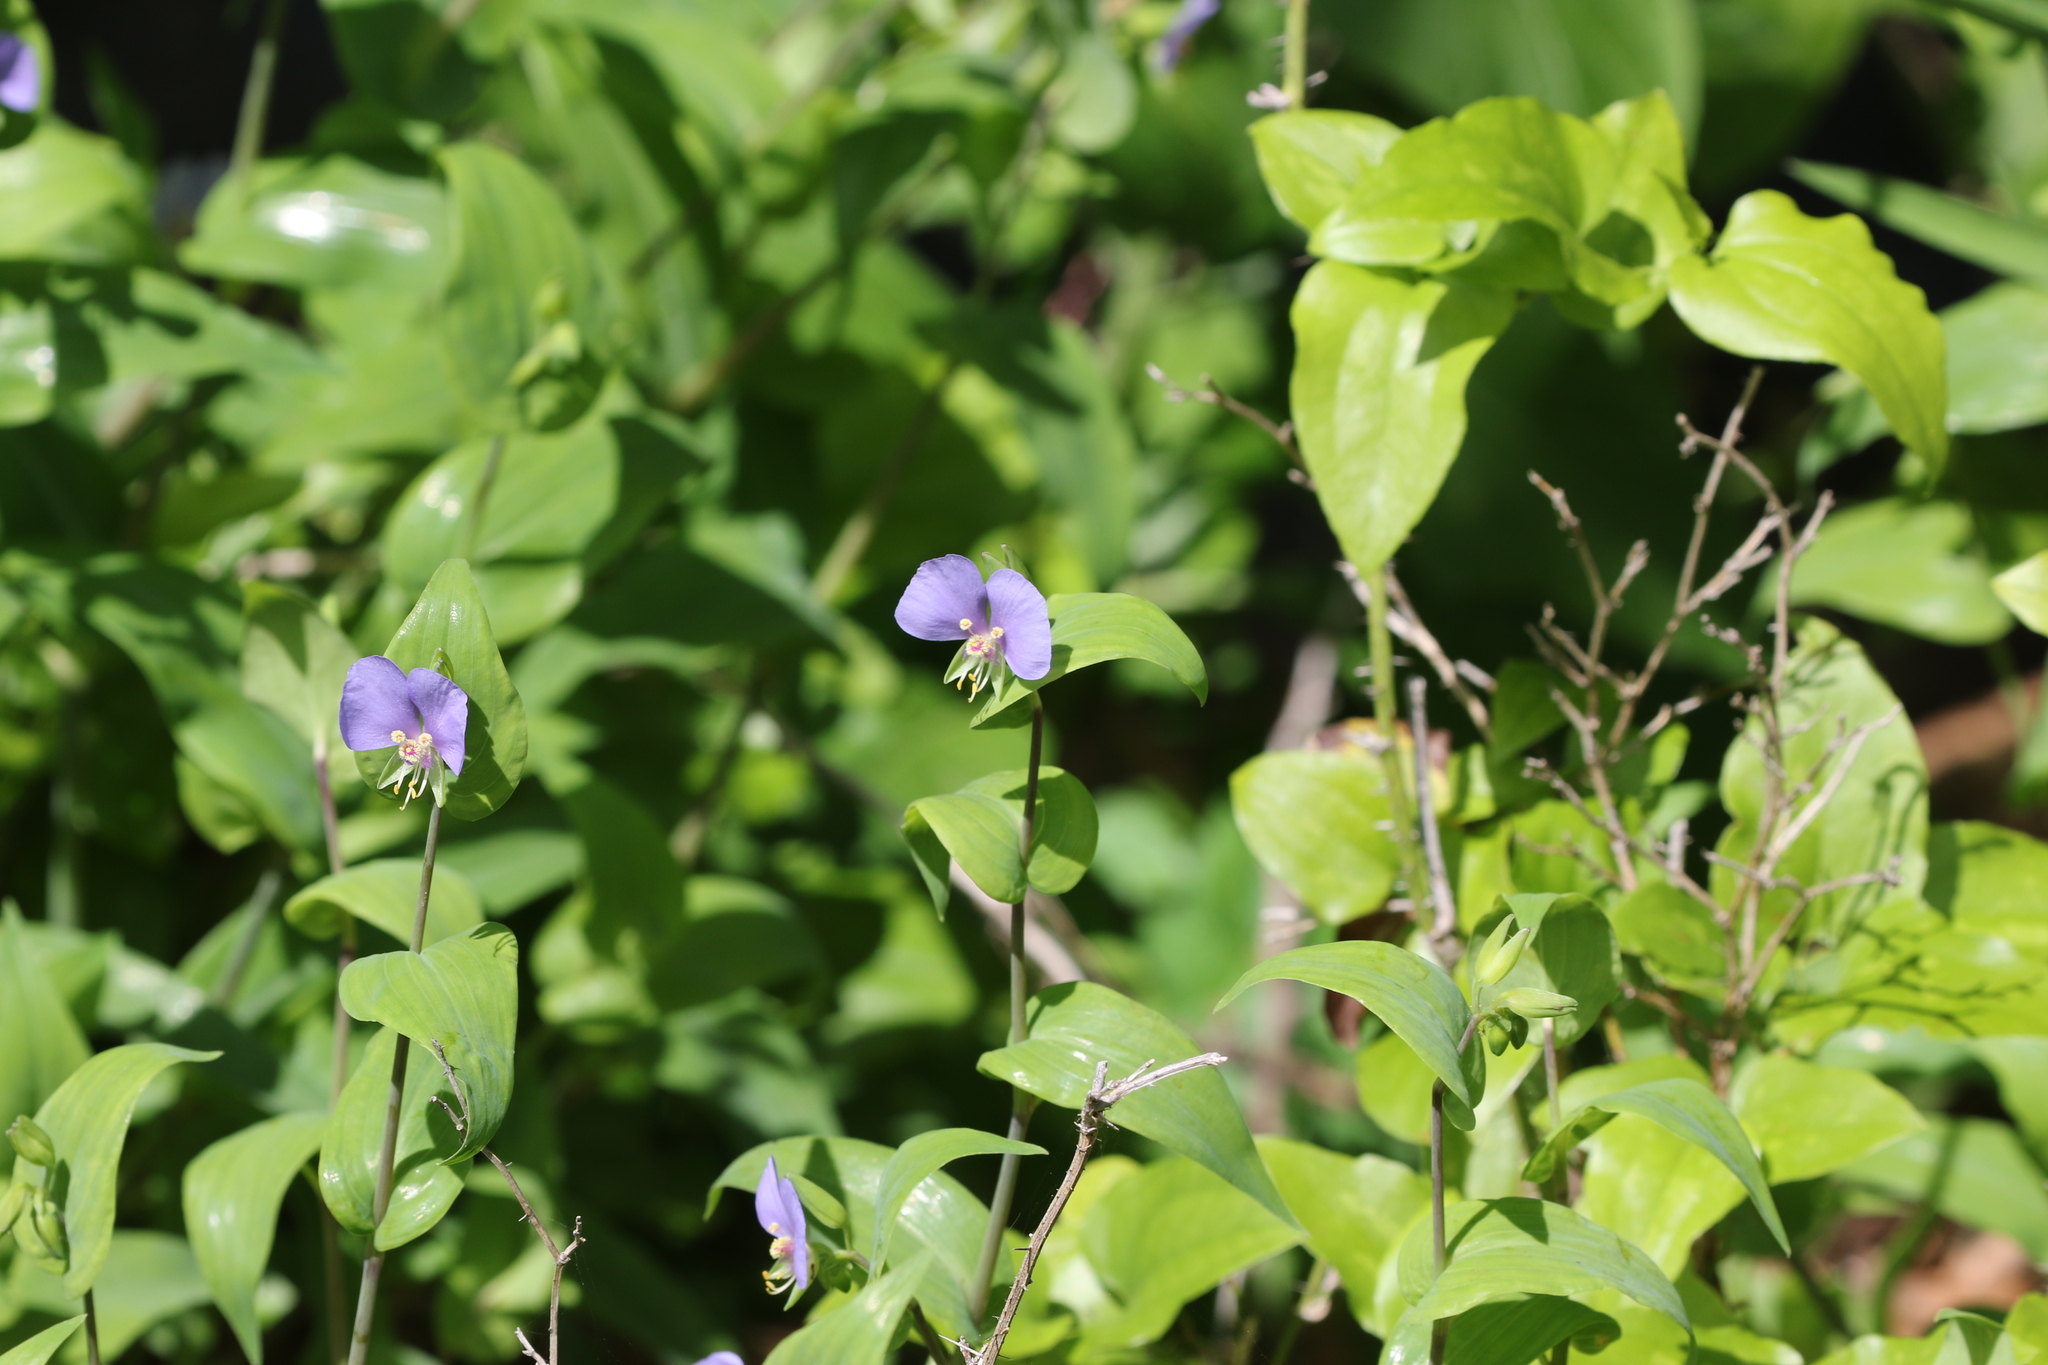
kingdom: Plantae
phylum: Tracheophyta
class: Liliopsida
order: Commelinales
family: Commelinaceae
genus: Tinantia
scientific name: Tinantia anomala
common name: False dayflower
